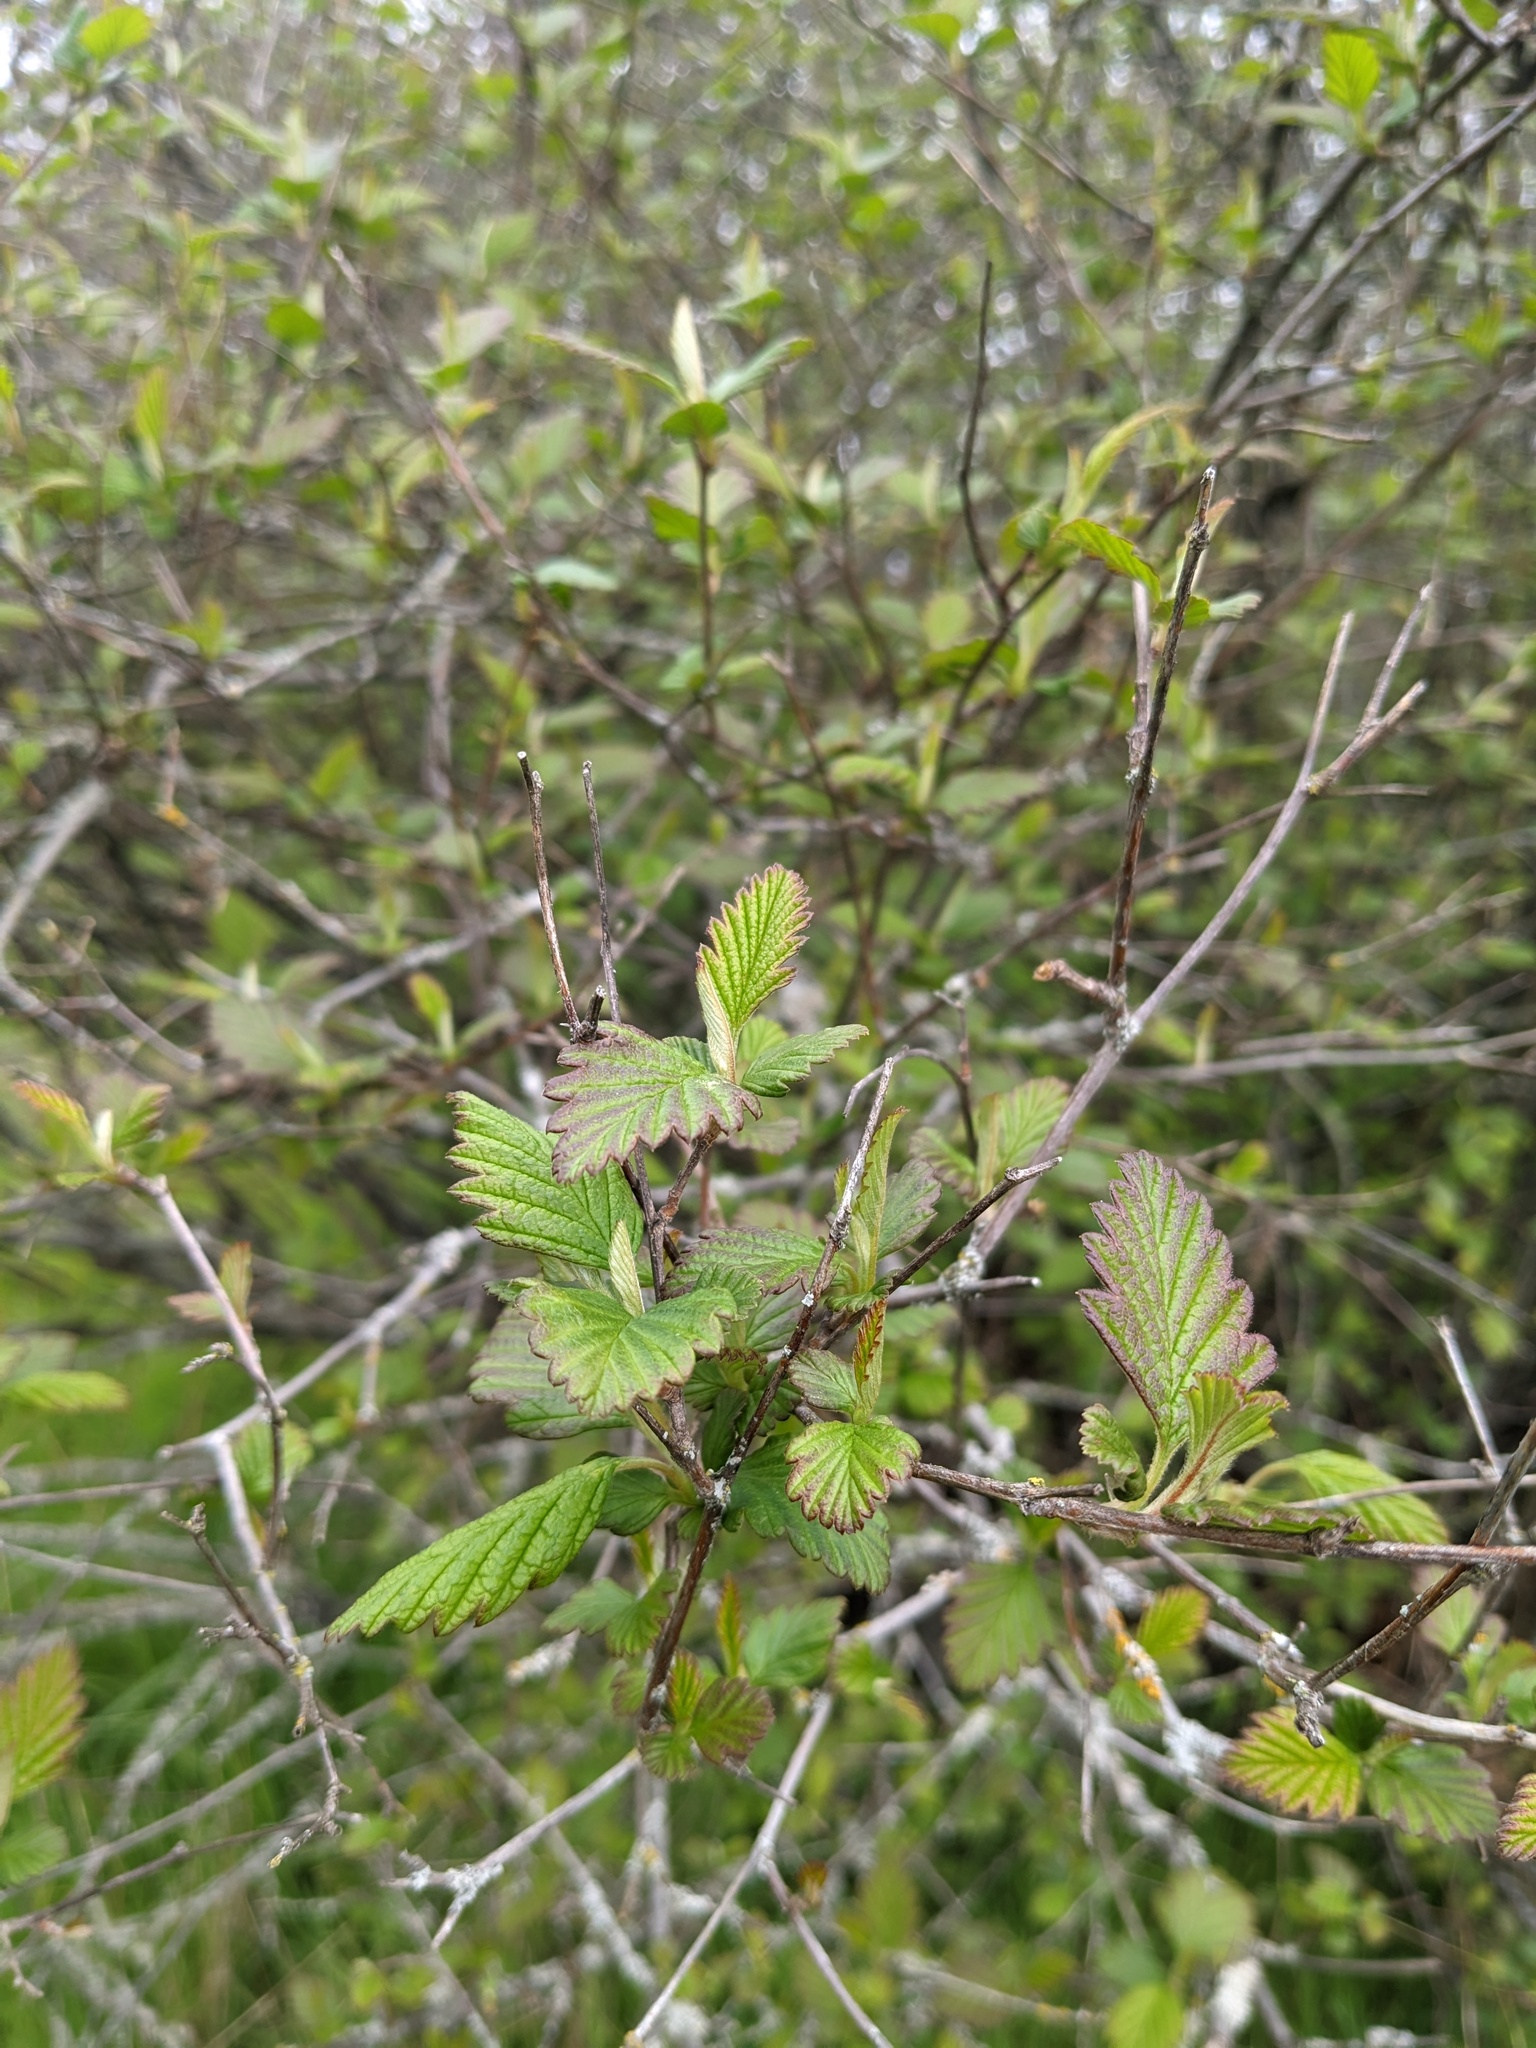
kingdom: Plantae
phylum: Tracheophyta
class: Magnoliopsida
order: Rosales
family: Rosaceae
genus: Holodiscus
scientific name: Holodiscus discolor
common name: Oceanspray
